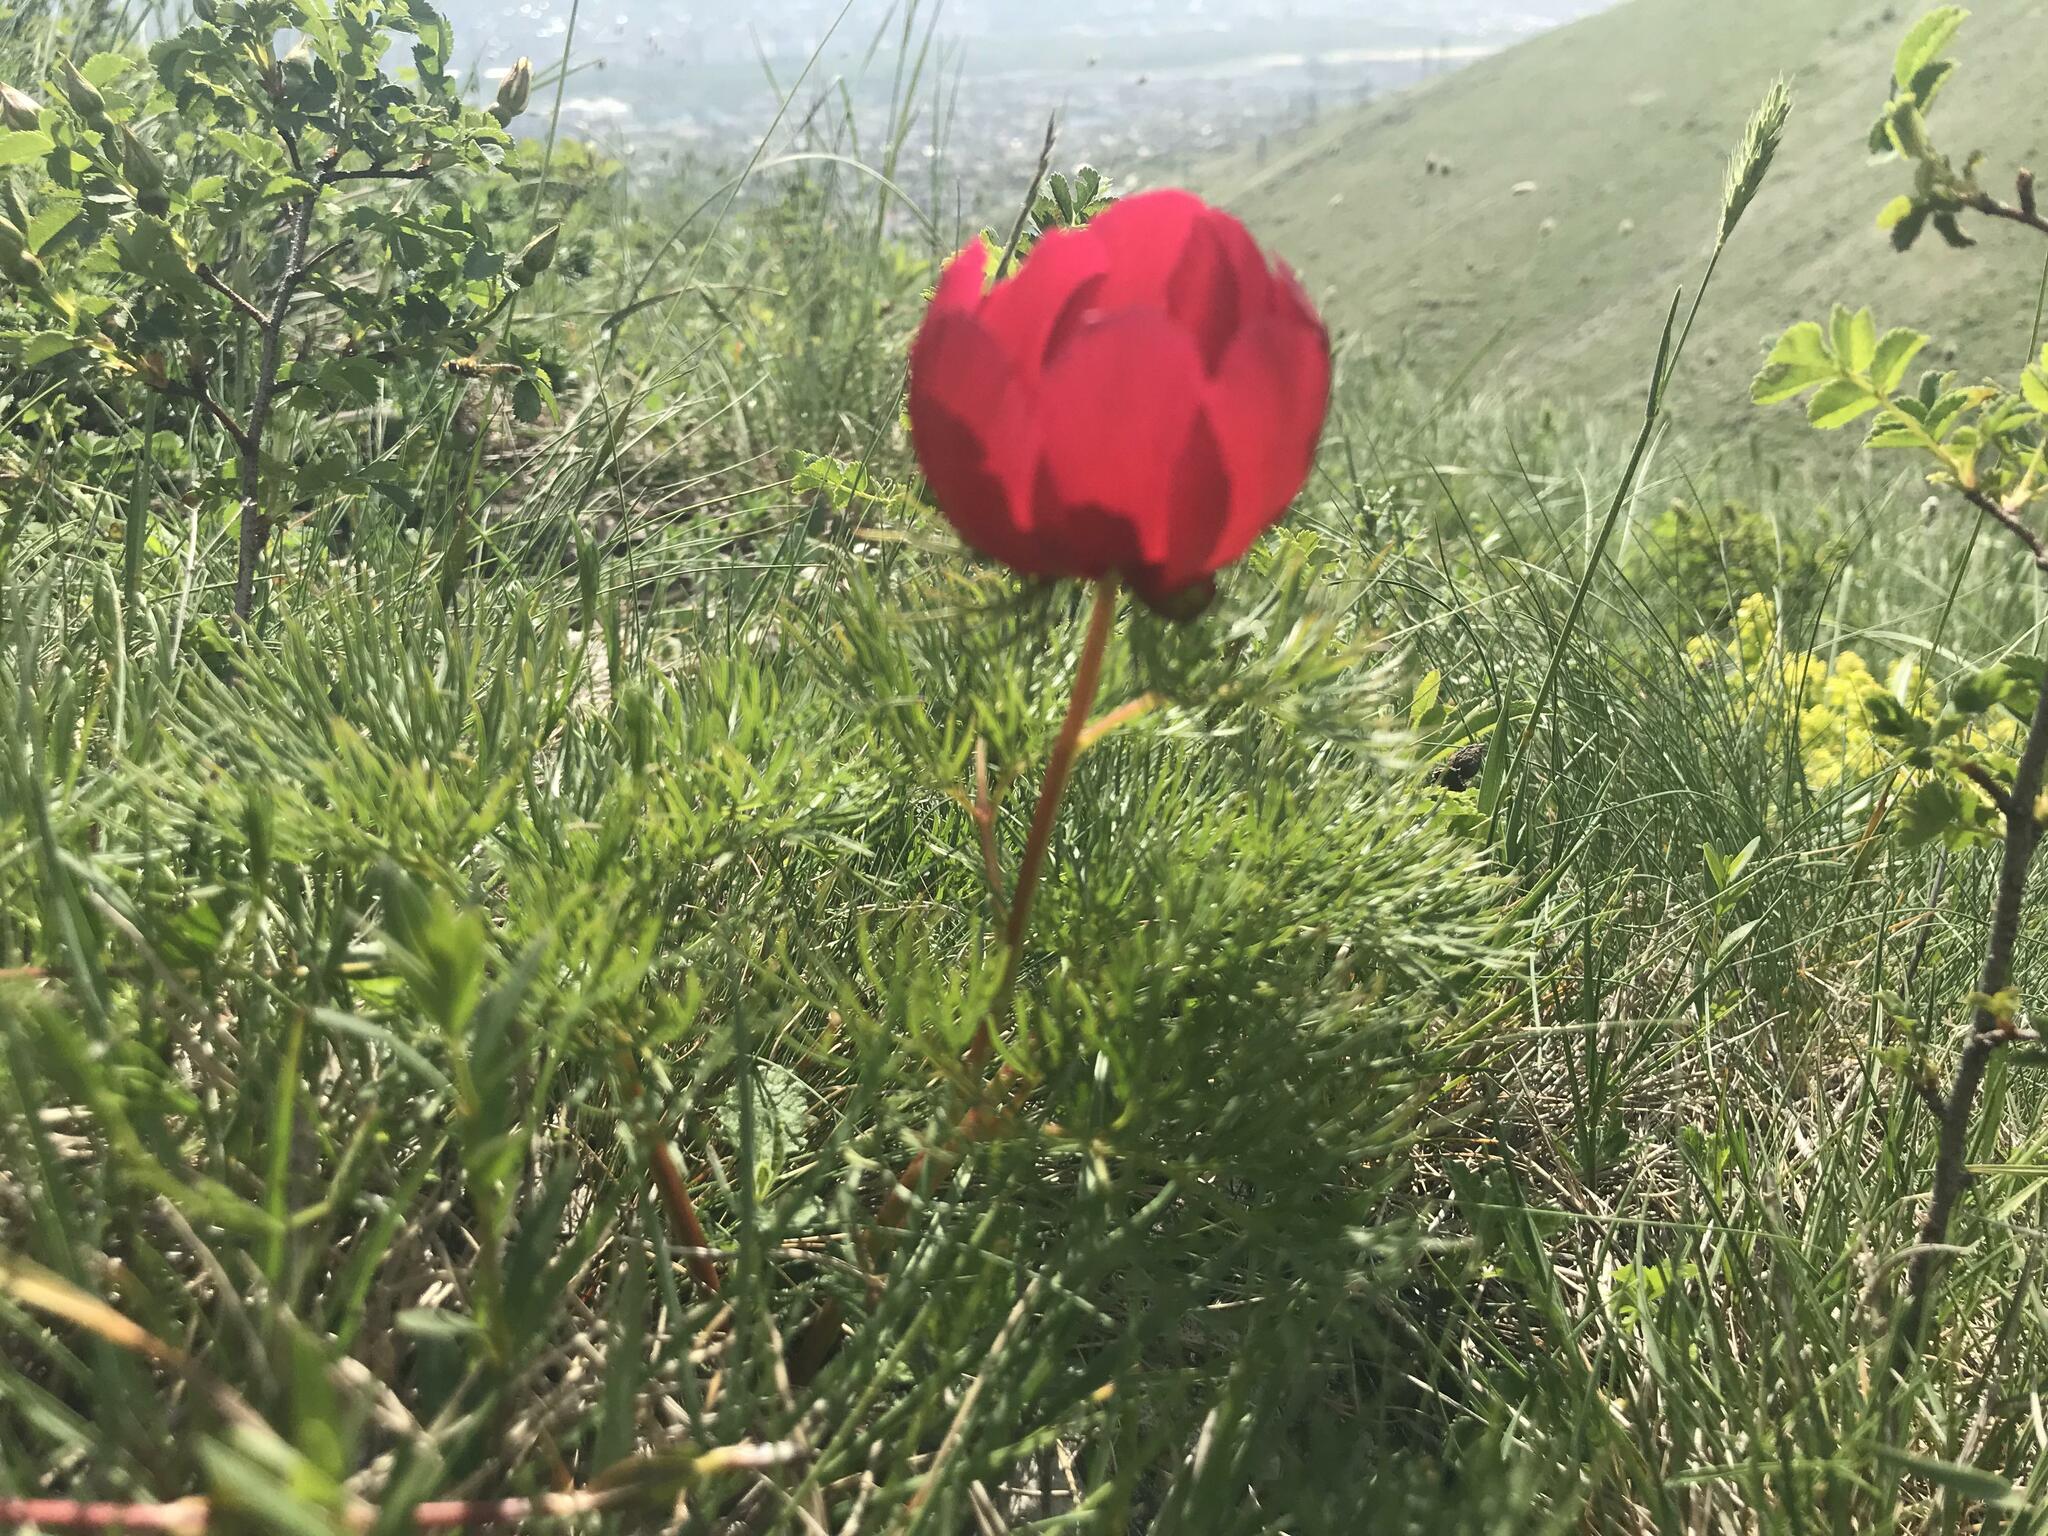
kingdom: Plantae
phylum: Tracheophyta
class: Magnoliopsida
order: Saxifragales
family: Paeoniaceae
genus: Paeonia
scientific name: Paeonia tenuifolia
